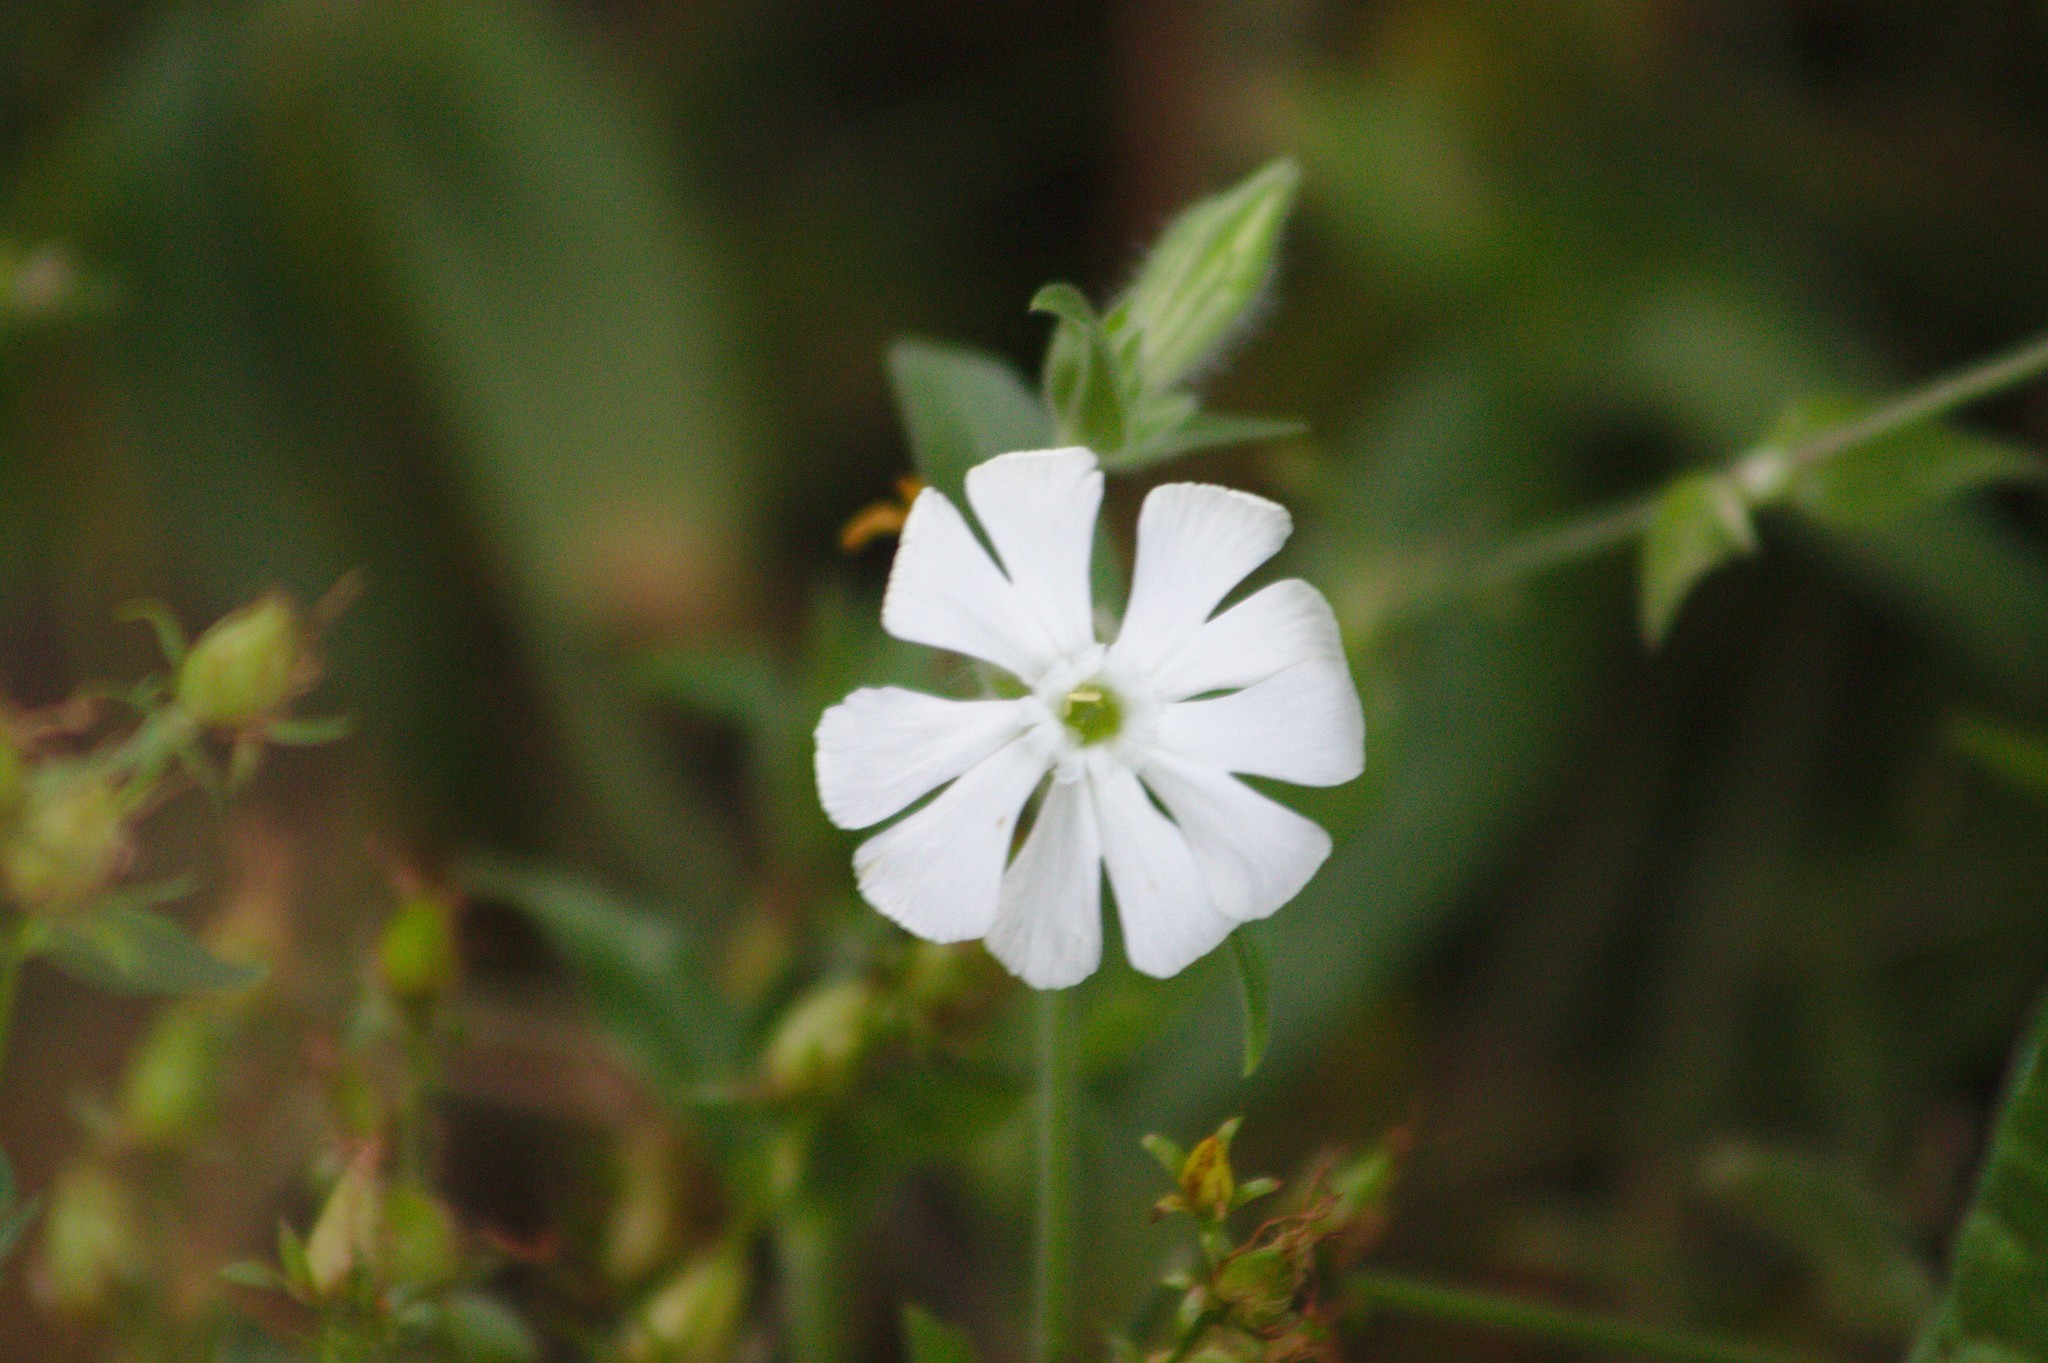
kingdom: Plantae
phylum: Tracheophyta
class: Magnoliopsida
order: Caryophyllales
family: Caryophyllaceae
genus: Silene
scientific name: Silene latifolia
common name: White campion
